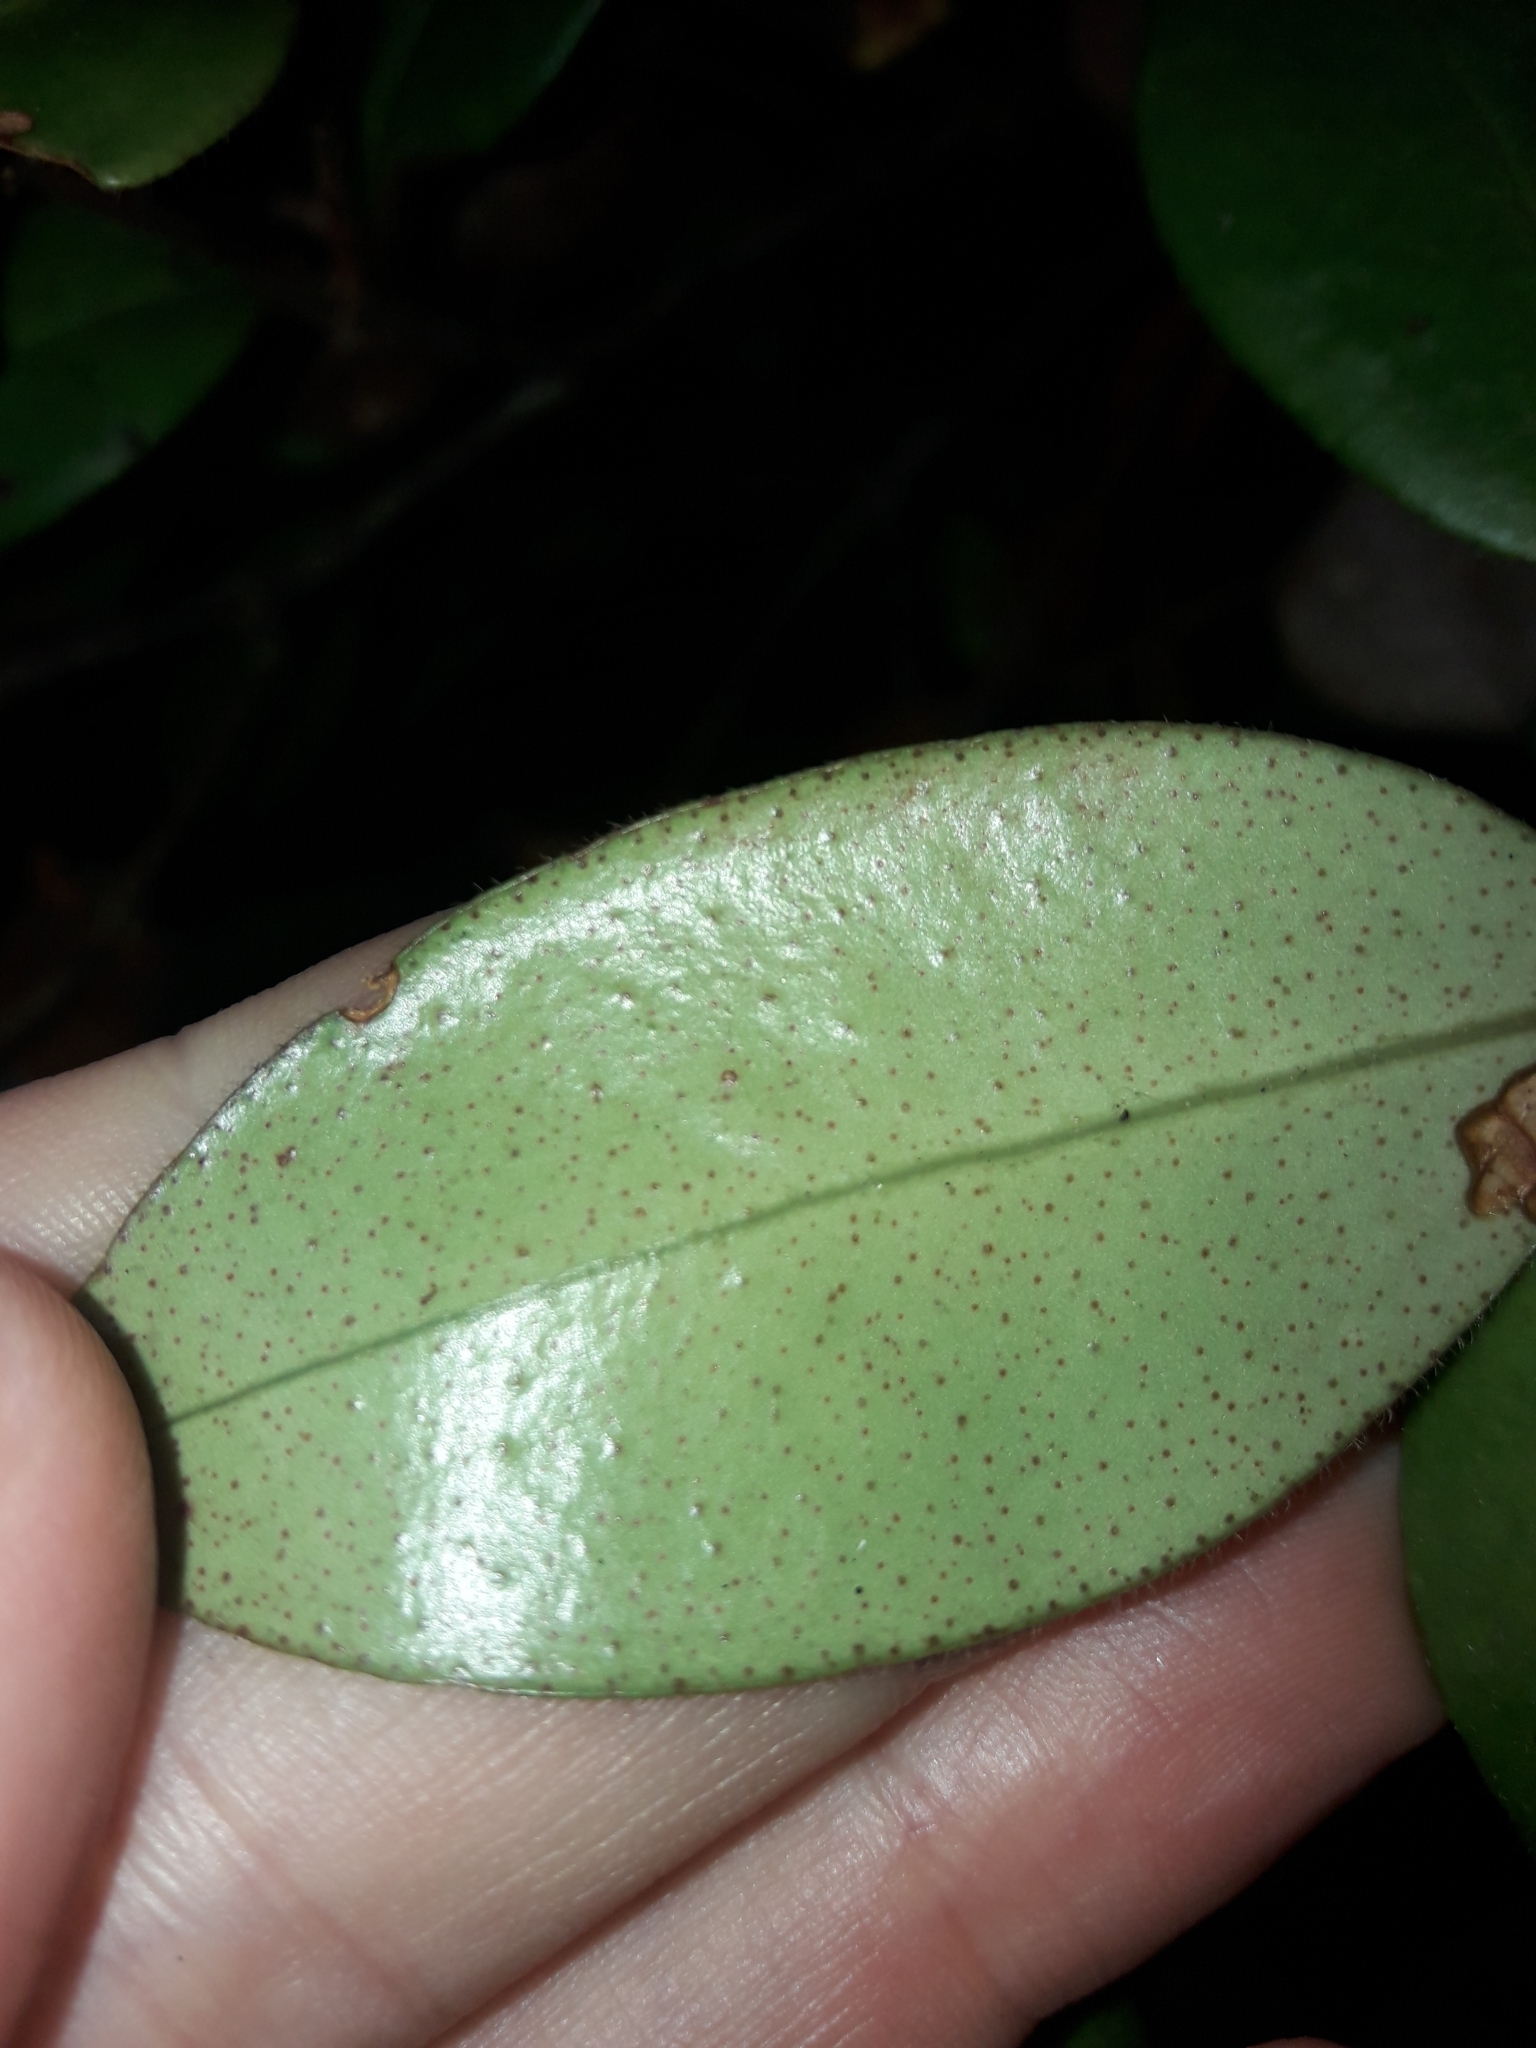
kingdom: Plantae
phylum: Tracheophyta
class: Magnoliopsida
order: Myrtales
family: Myrtaceae
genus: Metrosideros
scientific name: Metrosideros albiflora
